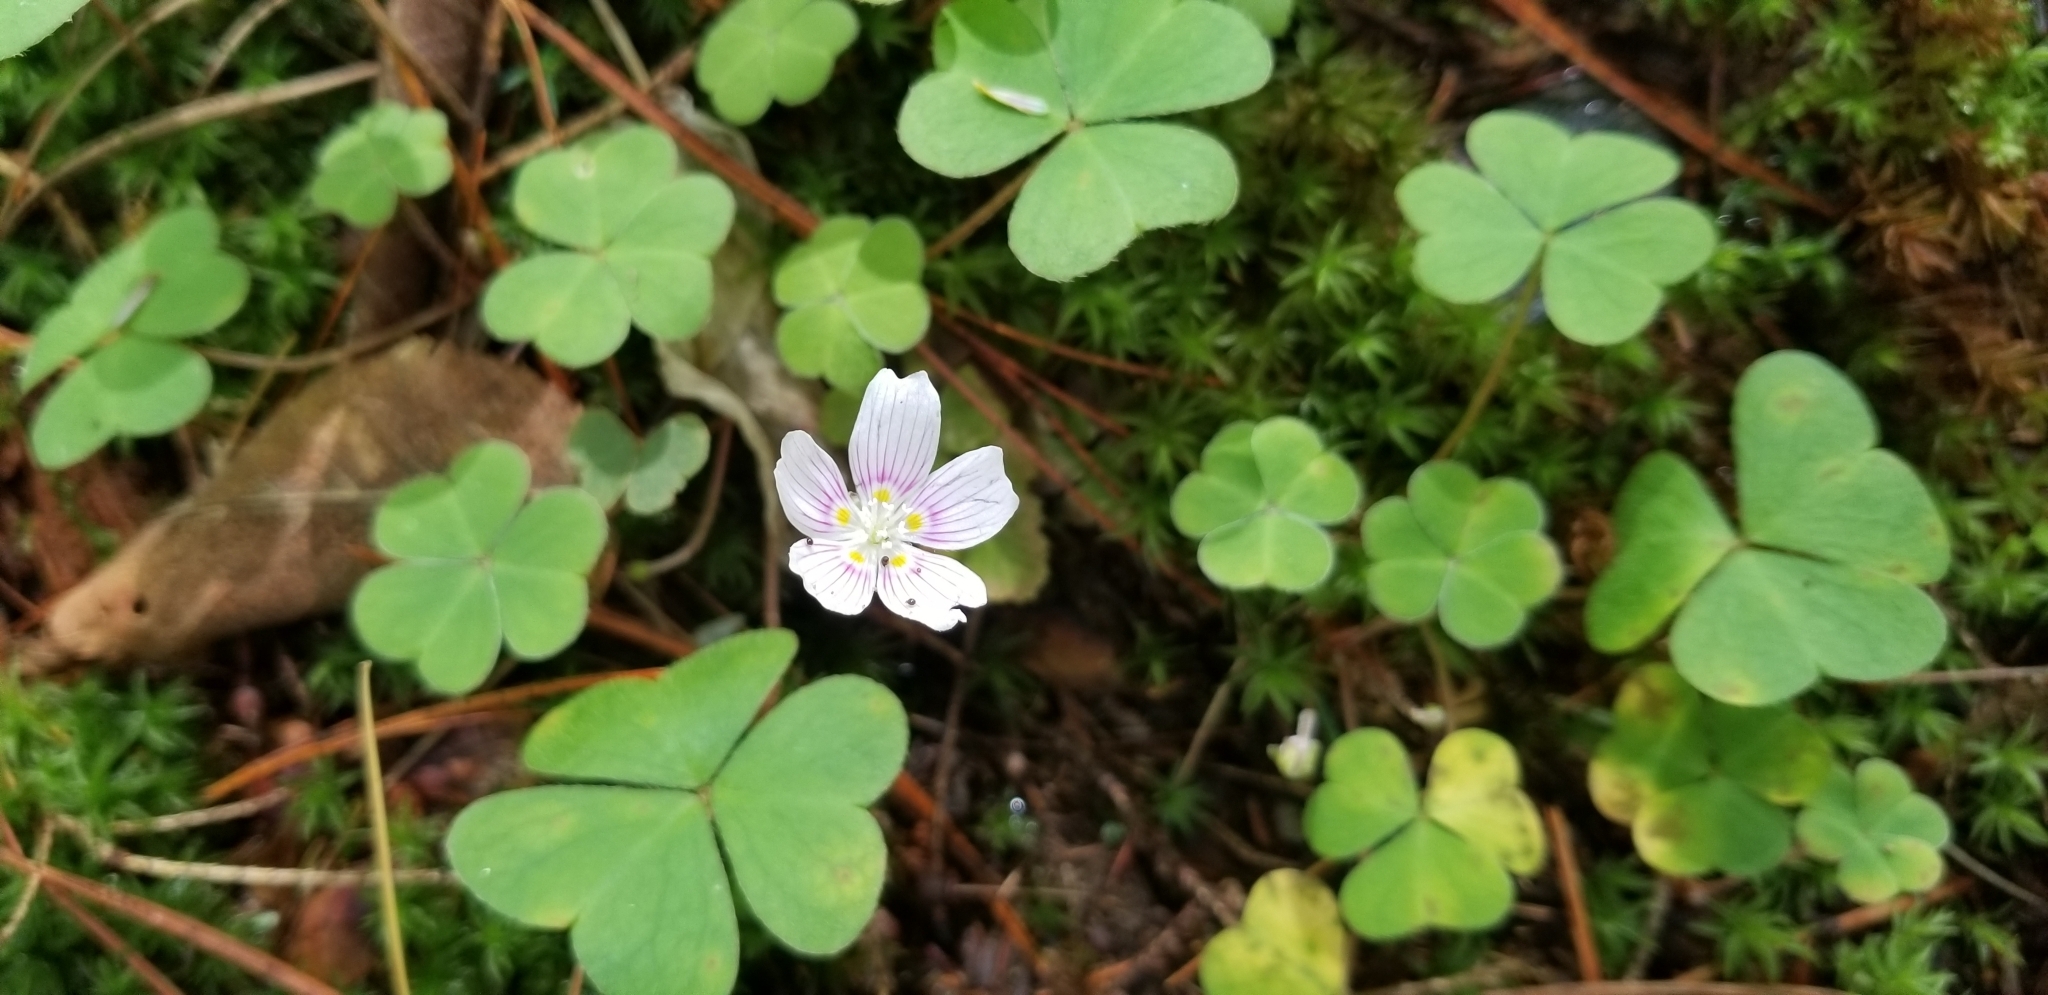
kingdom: Plantae
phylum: Tracheophyta
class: Magnoliopsida
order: Oxalidales
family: Oxalidaceae
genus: Oxalis
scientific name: Oxalis montana
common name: American wood-sorrel
